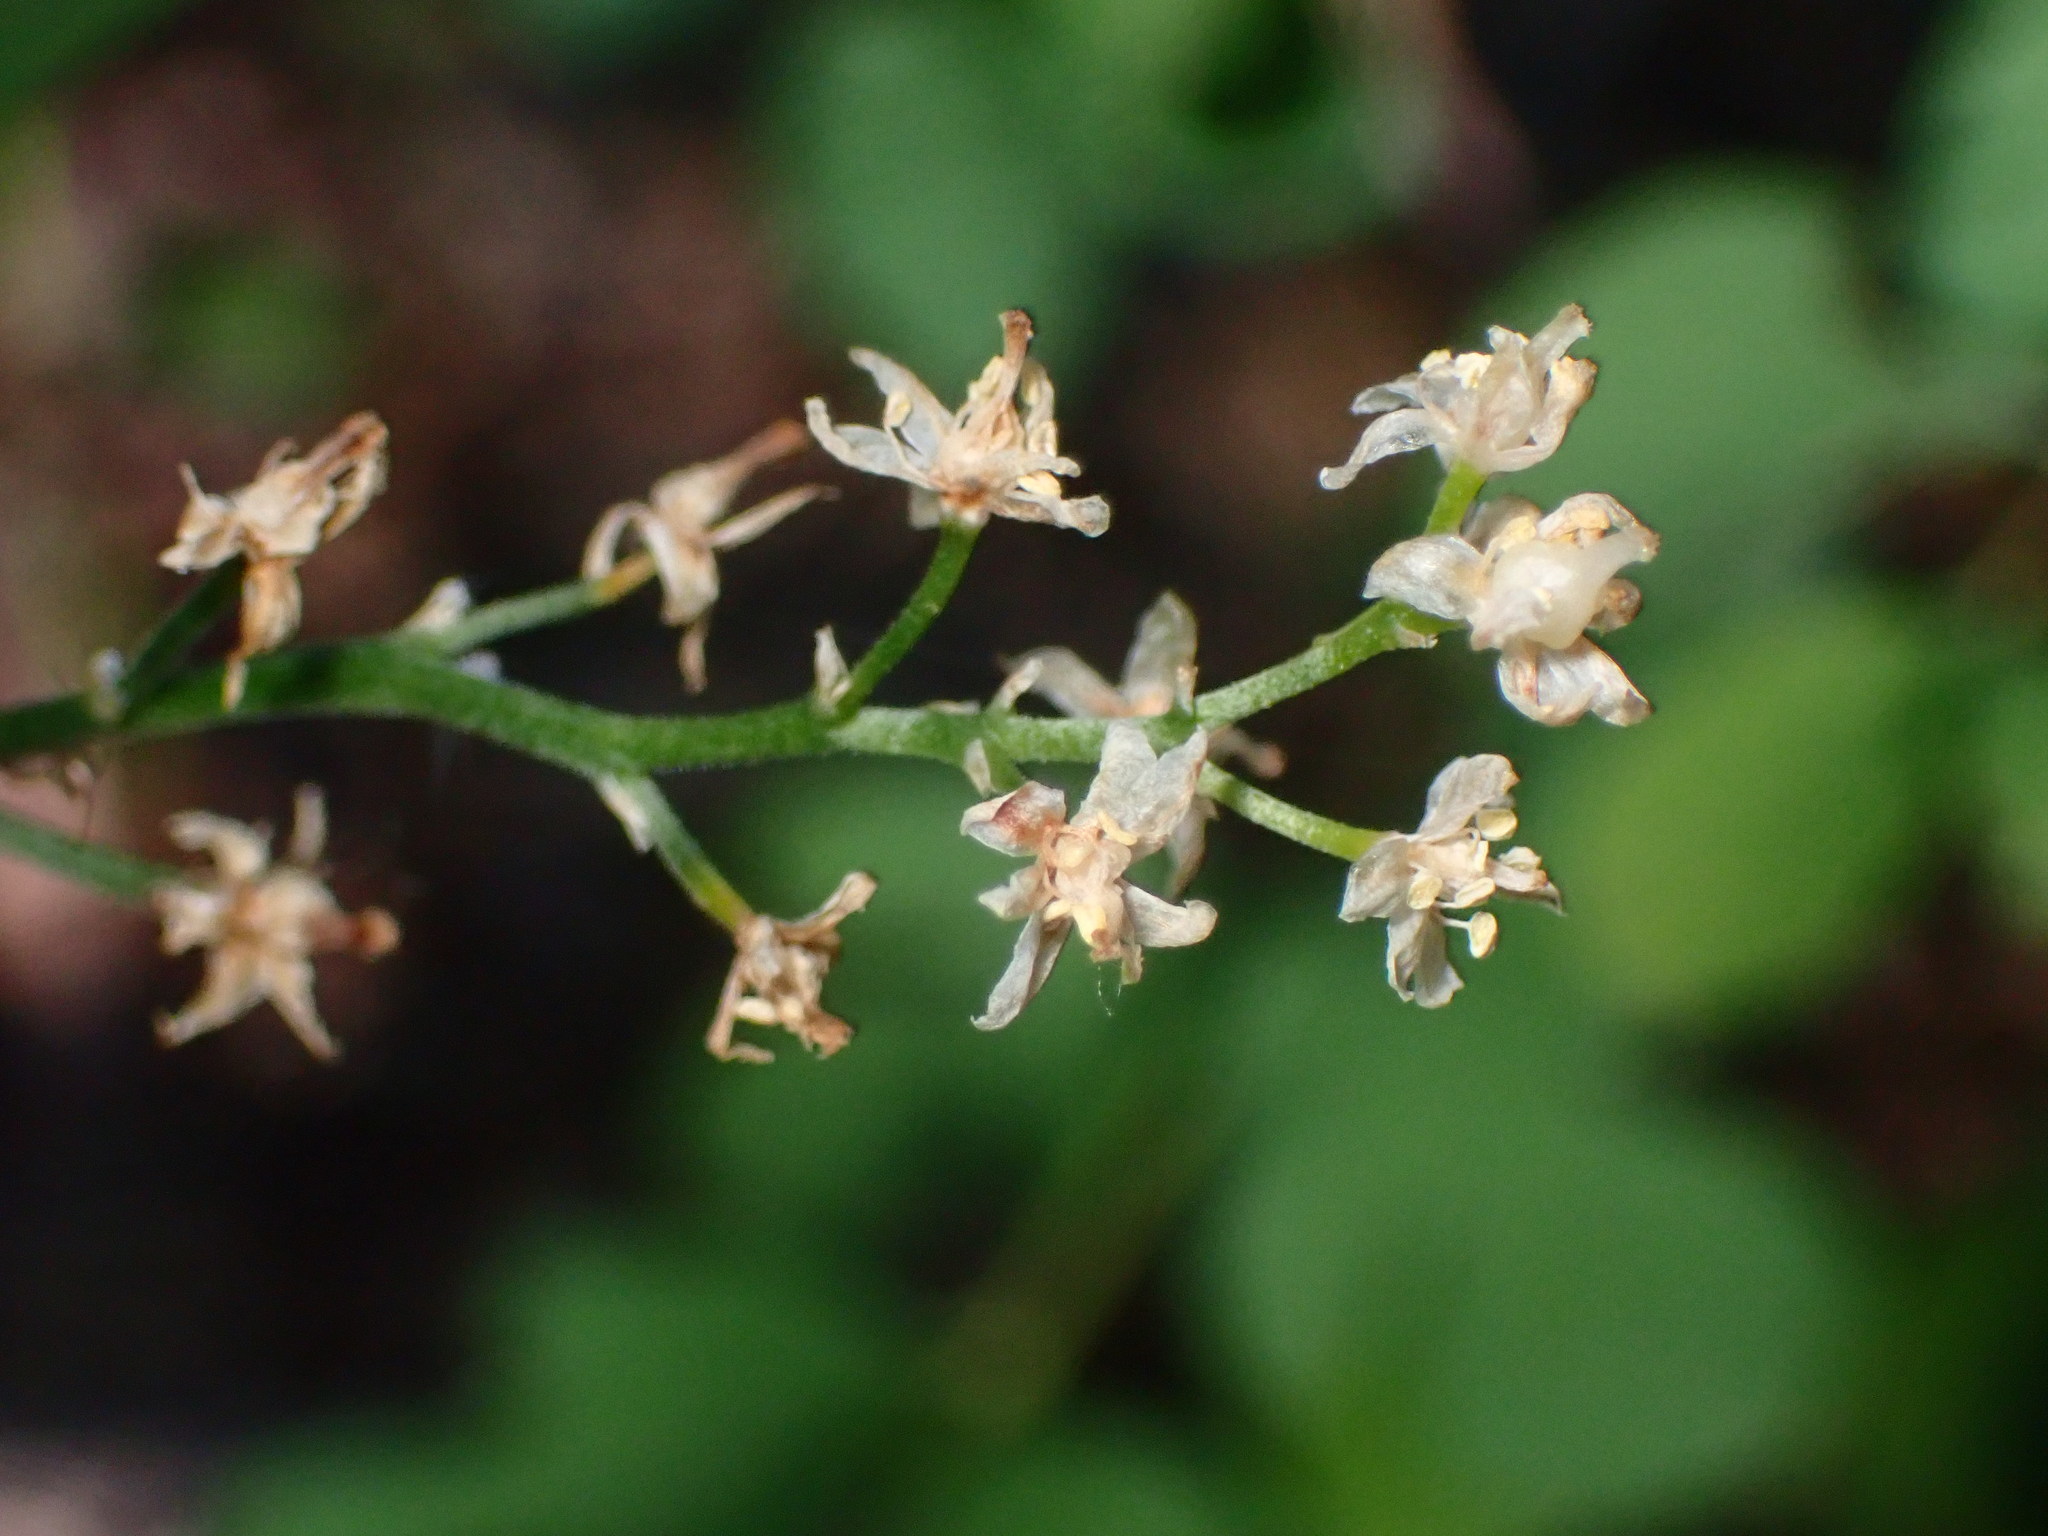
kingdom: Plantae
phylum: Tracheophyta
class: Liliopsida
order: Asparagales
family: Asparagaceae
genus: Maianthemum
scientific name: Maianthemum stellatum
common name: Little false solomon's seal
